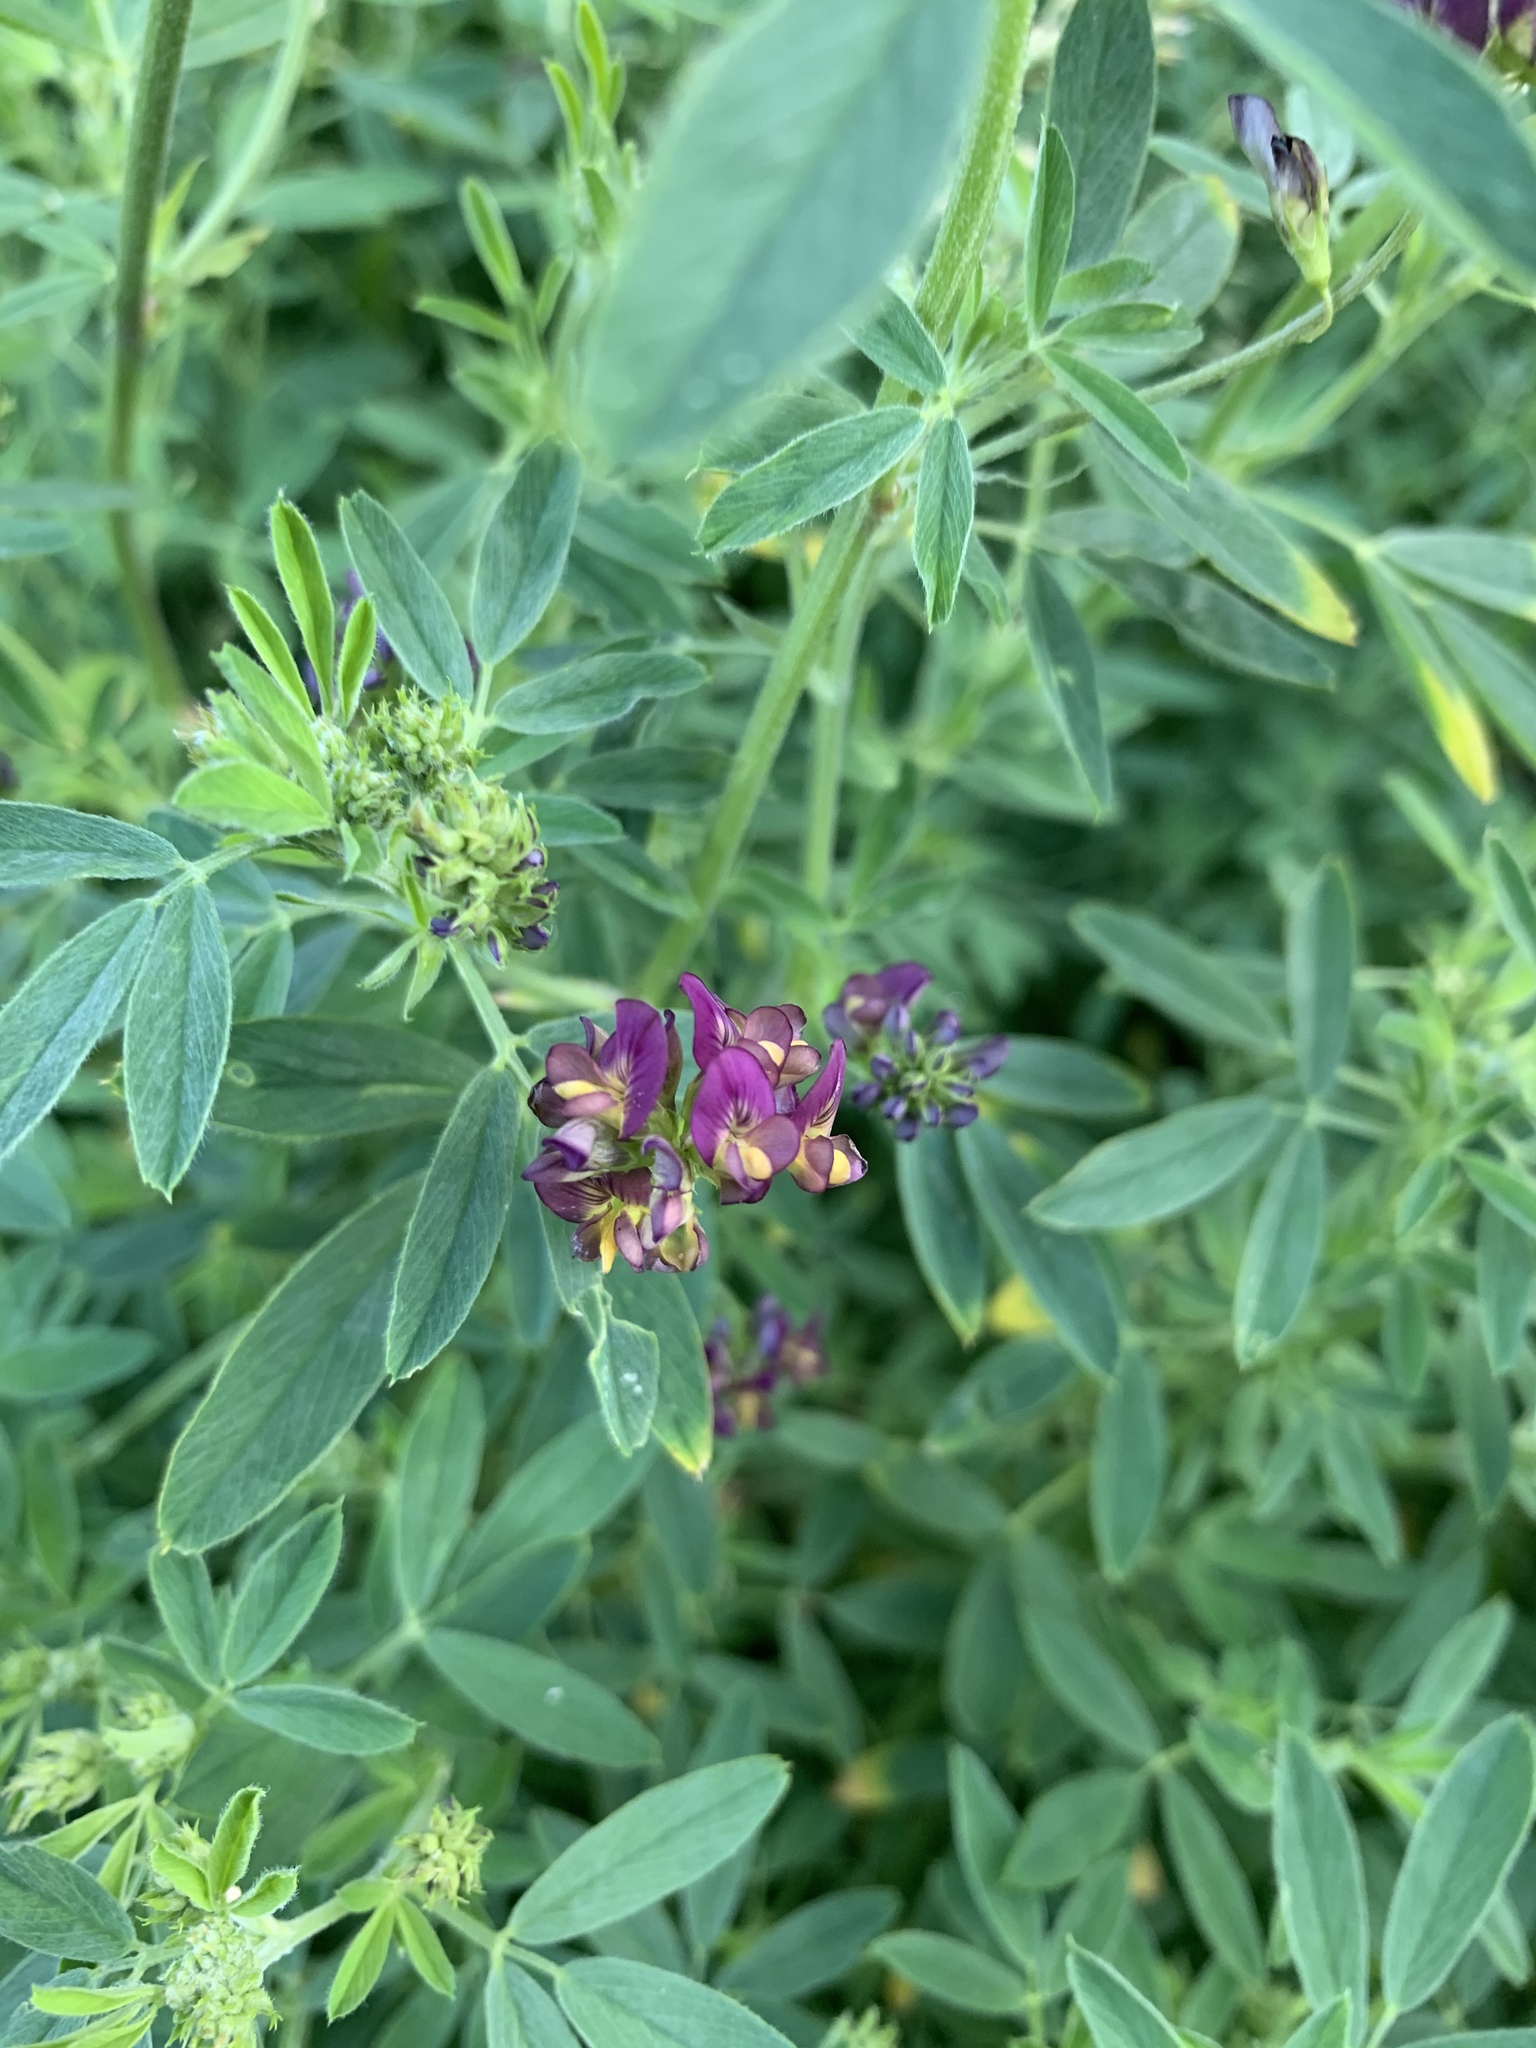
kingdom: Plantae
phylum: Tracheophyta
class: Magnoliopsida
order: Fabales
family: Fabaceae
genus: Medicago
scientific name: Medicago sativa
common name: Alfalfa
